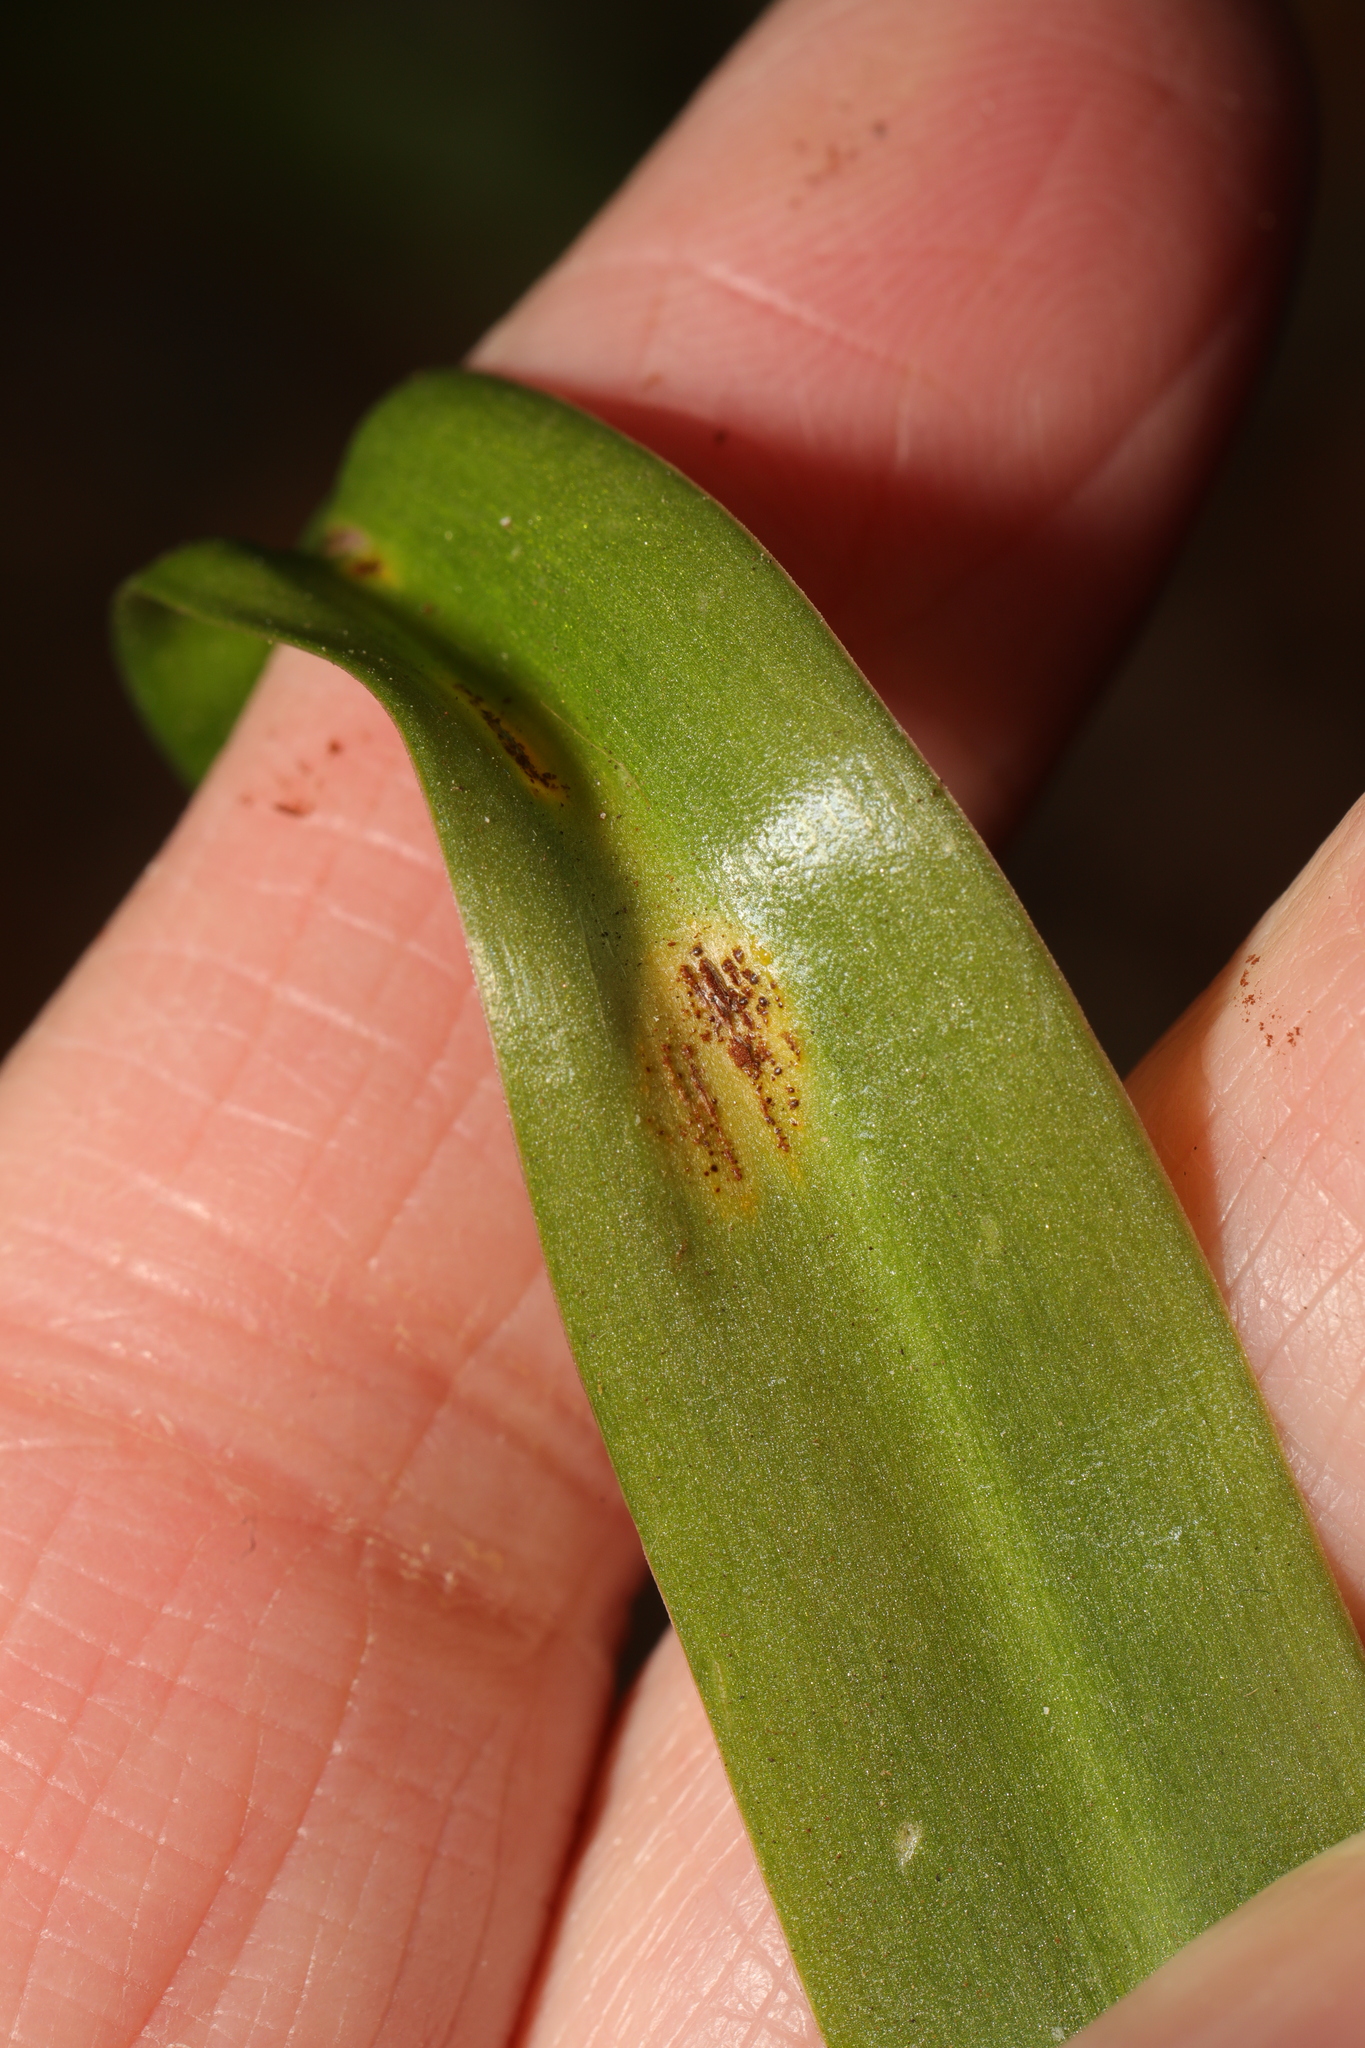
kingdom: Fungi
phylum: Basidiomycota
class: Pucciniomycetes
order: Pucciniales
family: Pucciniaceae
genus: Uromyces
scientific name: Uromyces hyacinthi
